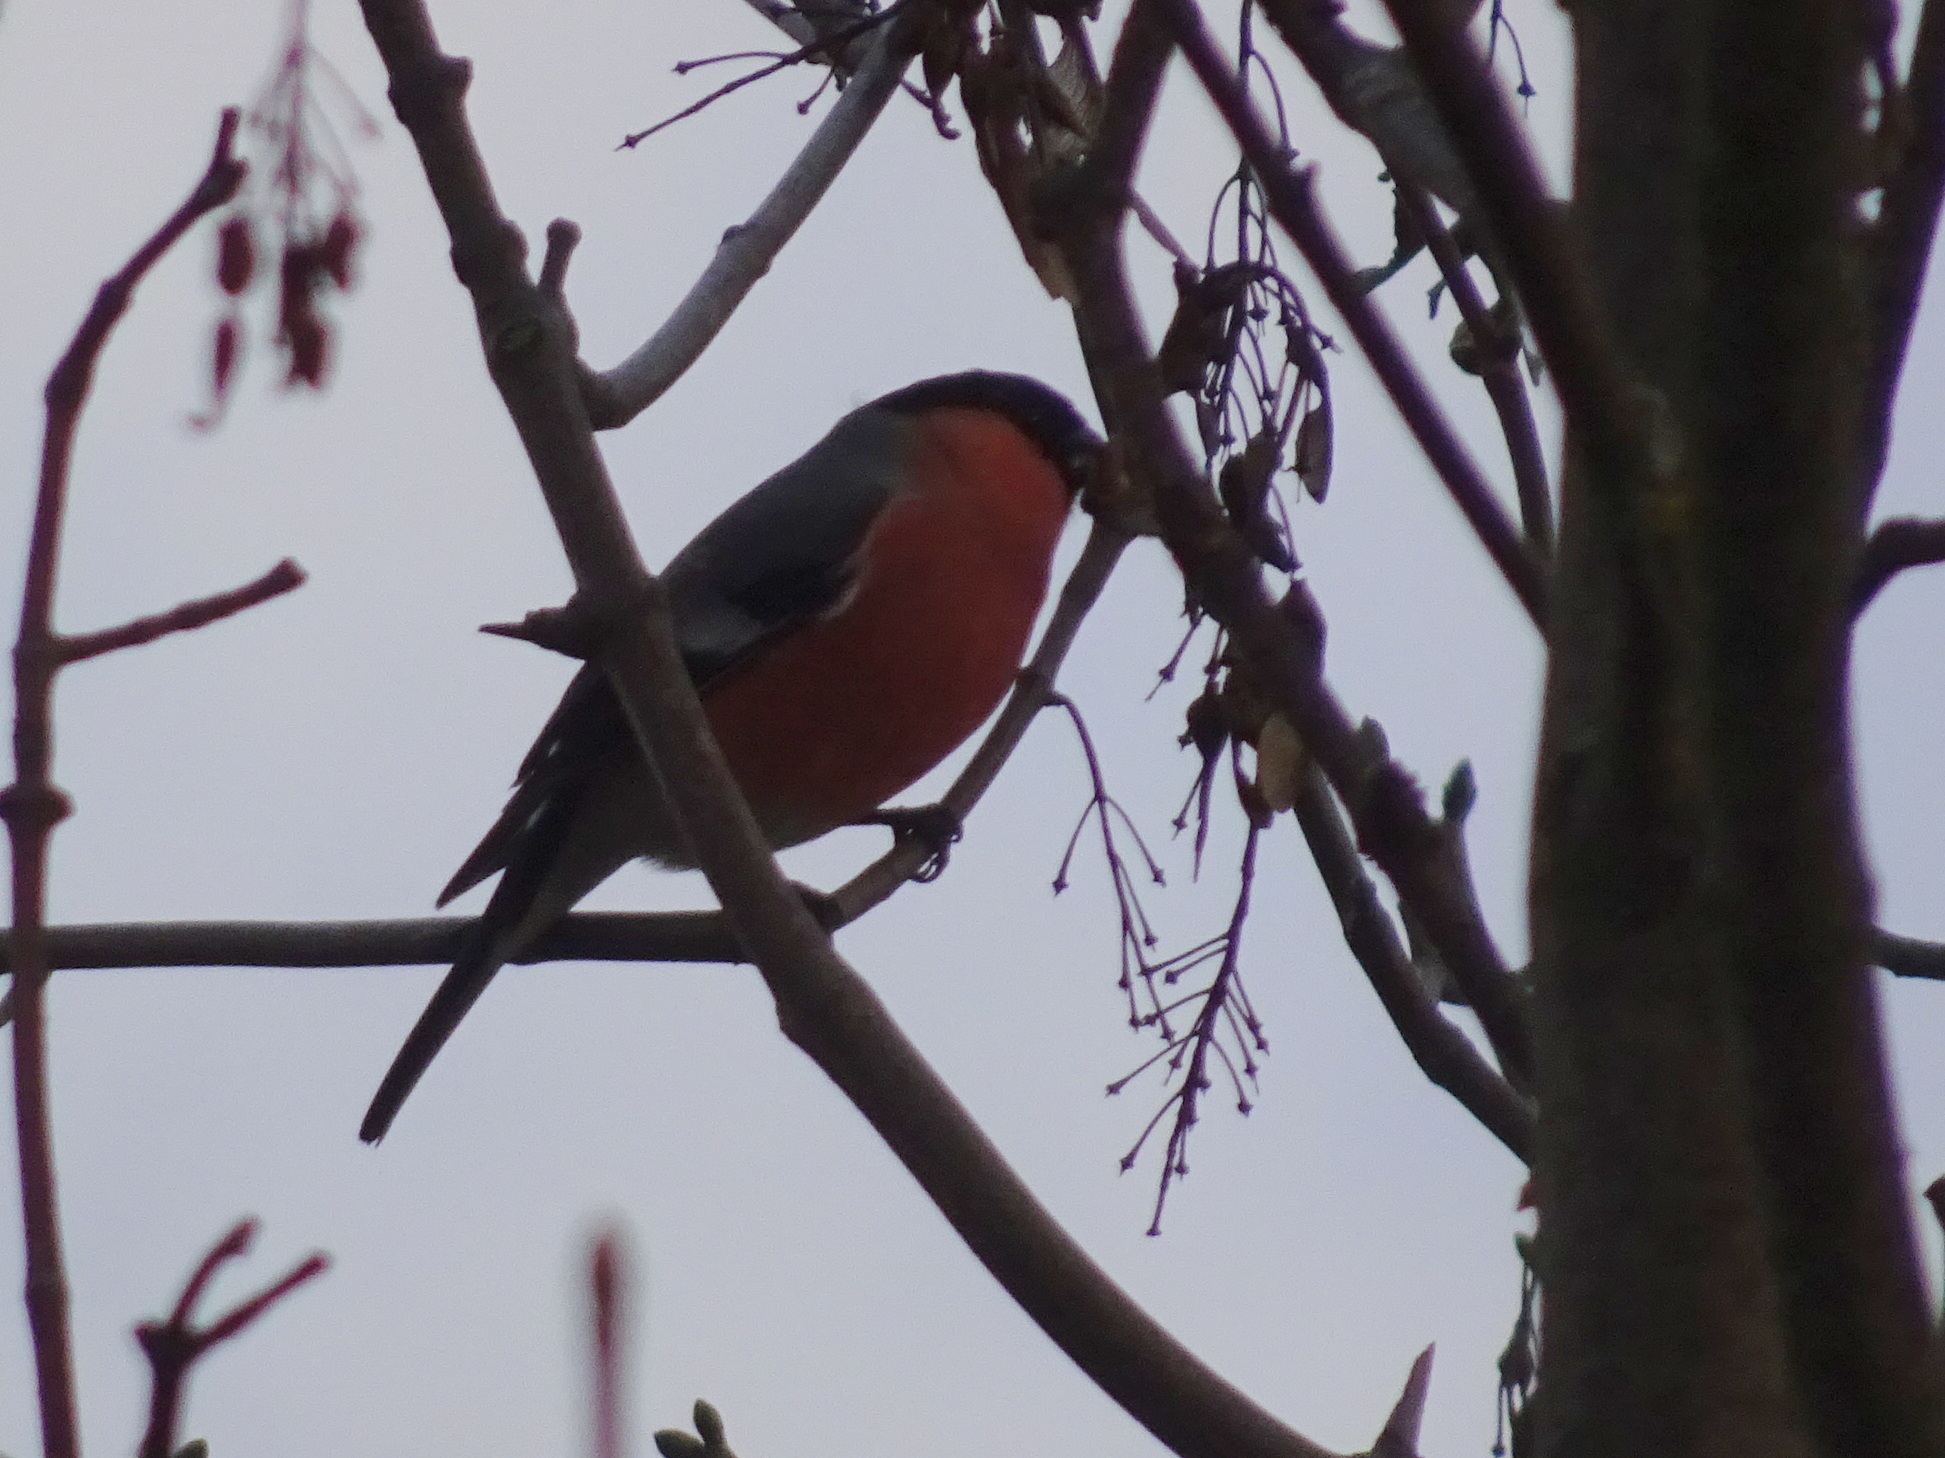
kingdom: Animalia
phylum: Chordata
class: Aves
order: Passeriformes
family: Fringillidae
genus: Pyrrhula
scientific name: Pyrrhula pyrrhula
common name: Eurasian bullfinch
